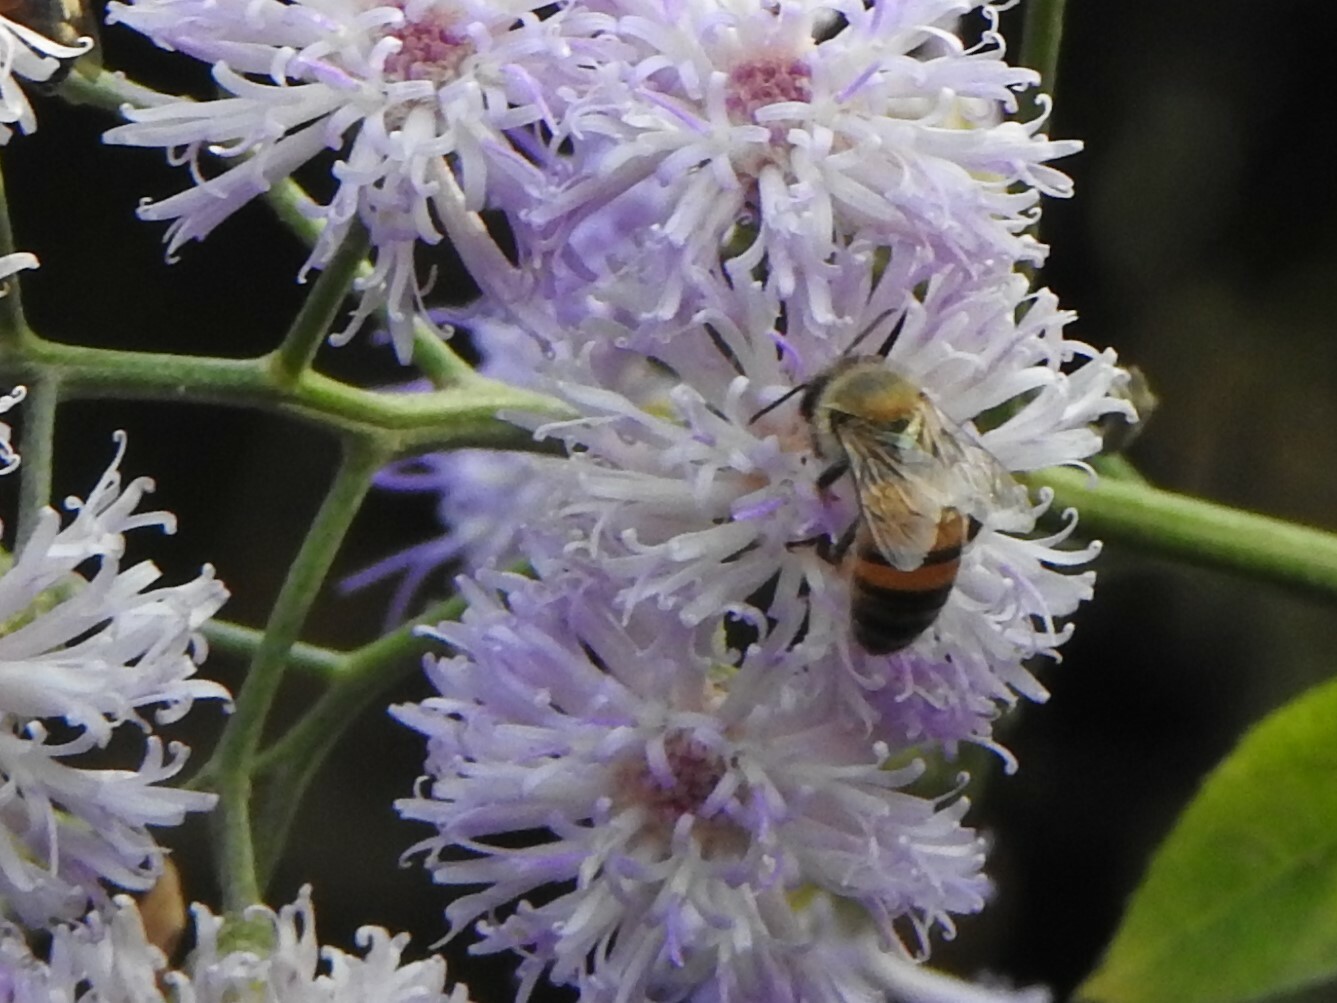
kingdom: Animalia
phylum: Arthropoda
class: Insecta
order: Hymenoptera
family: Apidae
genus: Apis
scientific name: Apis mellifera
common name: Honey bee
